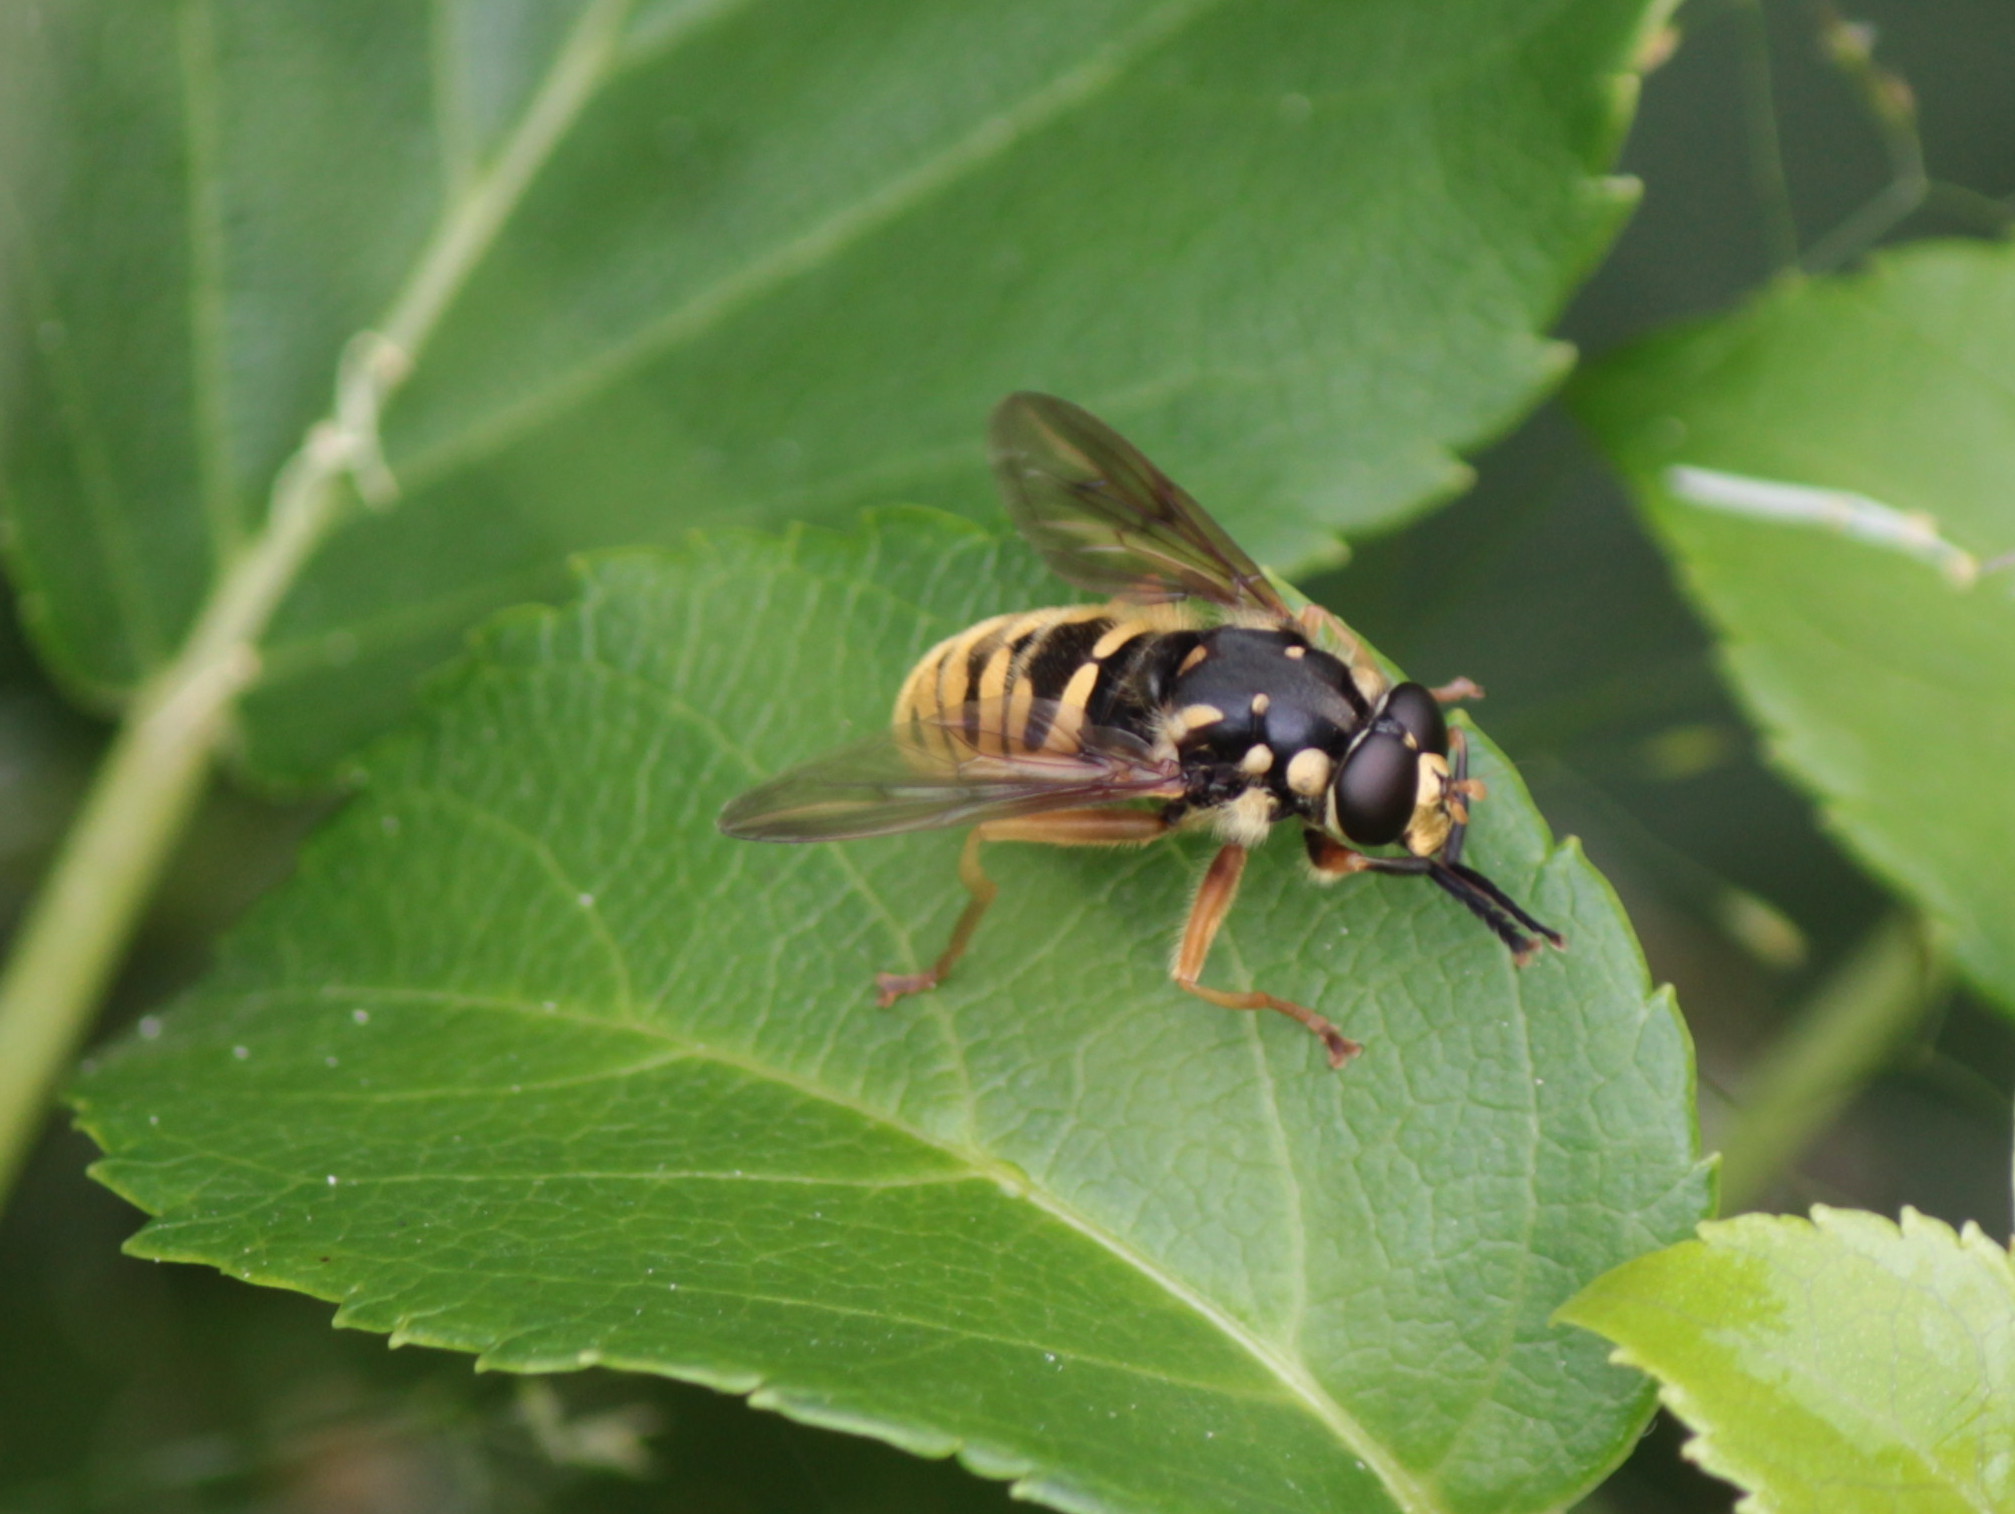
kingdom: Animalia
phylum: Arthropoda
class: Insecta
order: Diptera
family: Syrphidae
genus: Temnostoma
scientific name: Temnostoma alternans
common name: Wasp-like falsehorn
